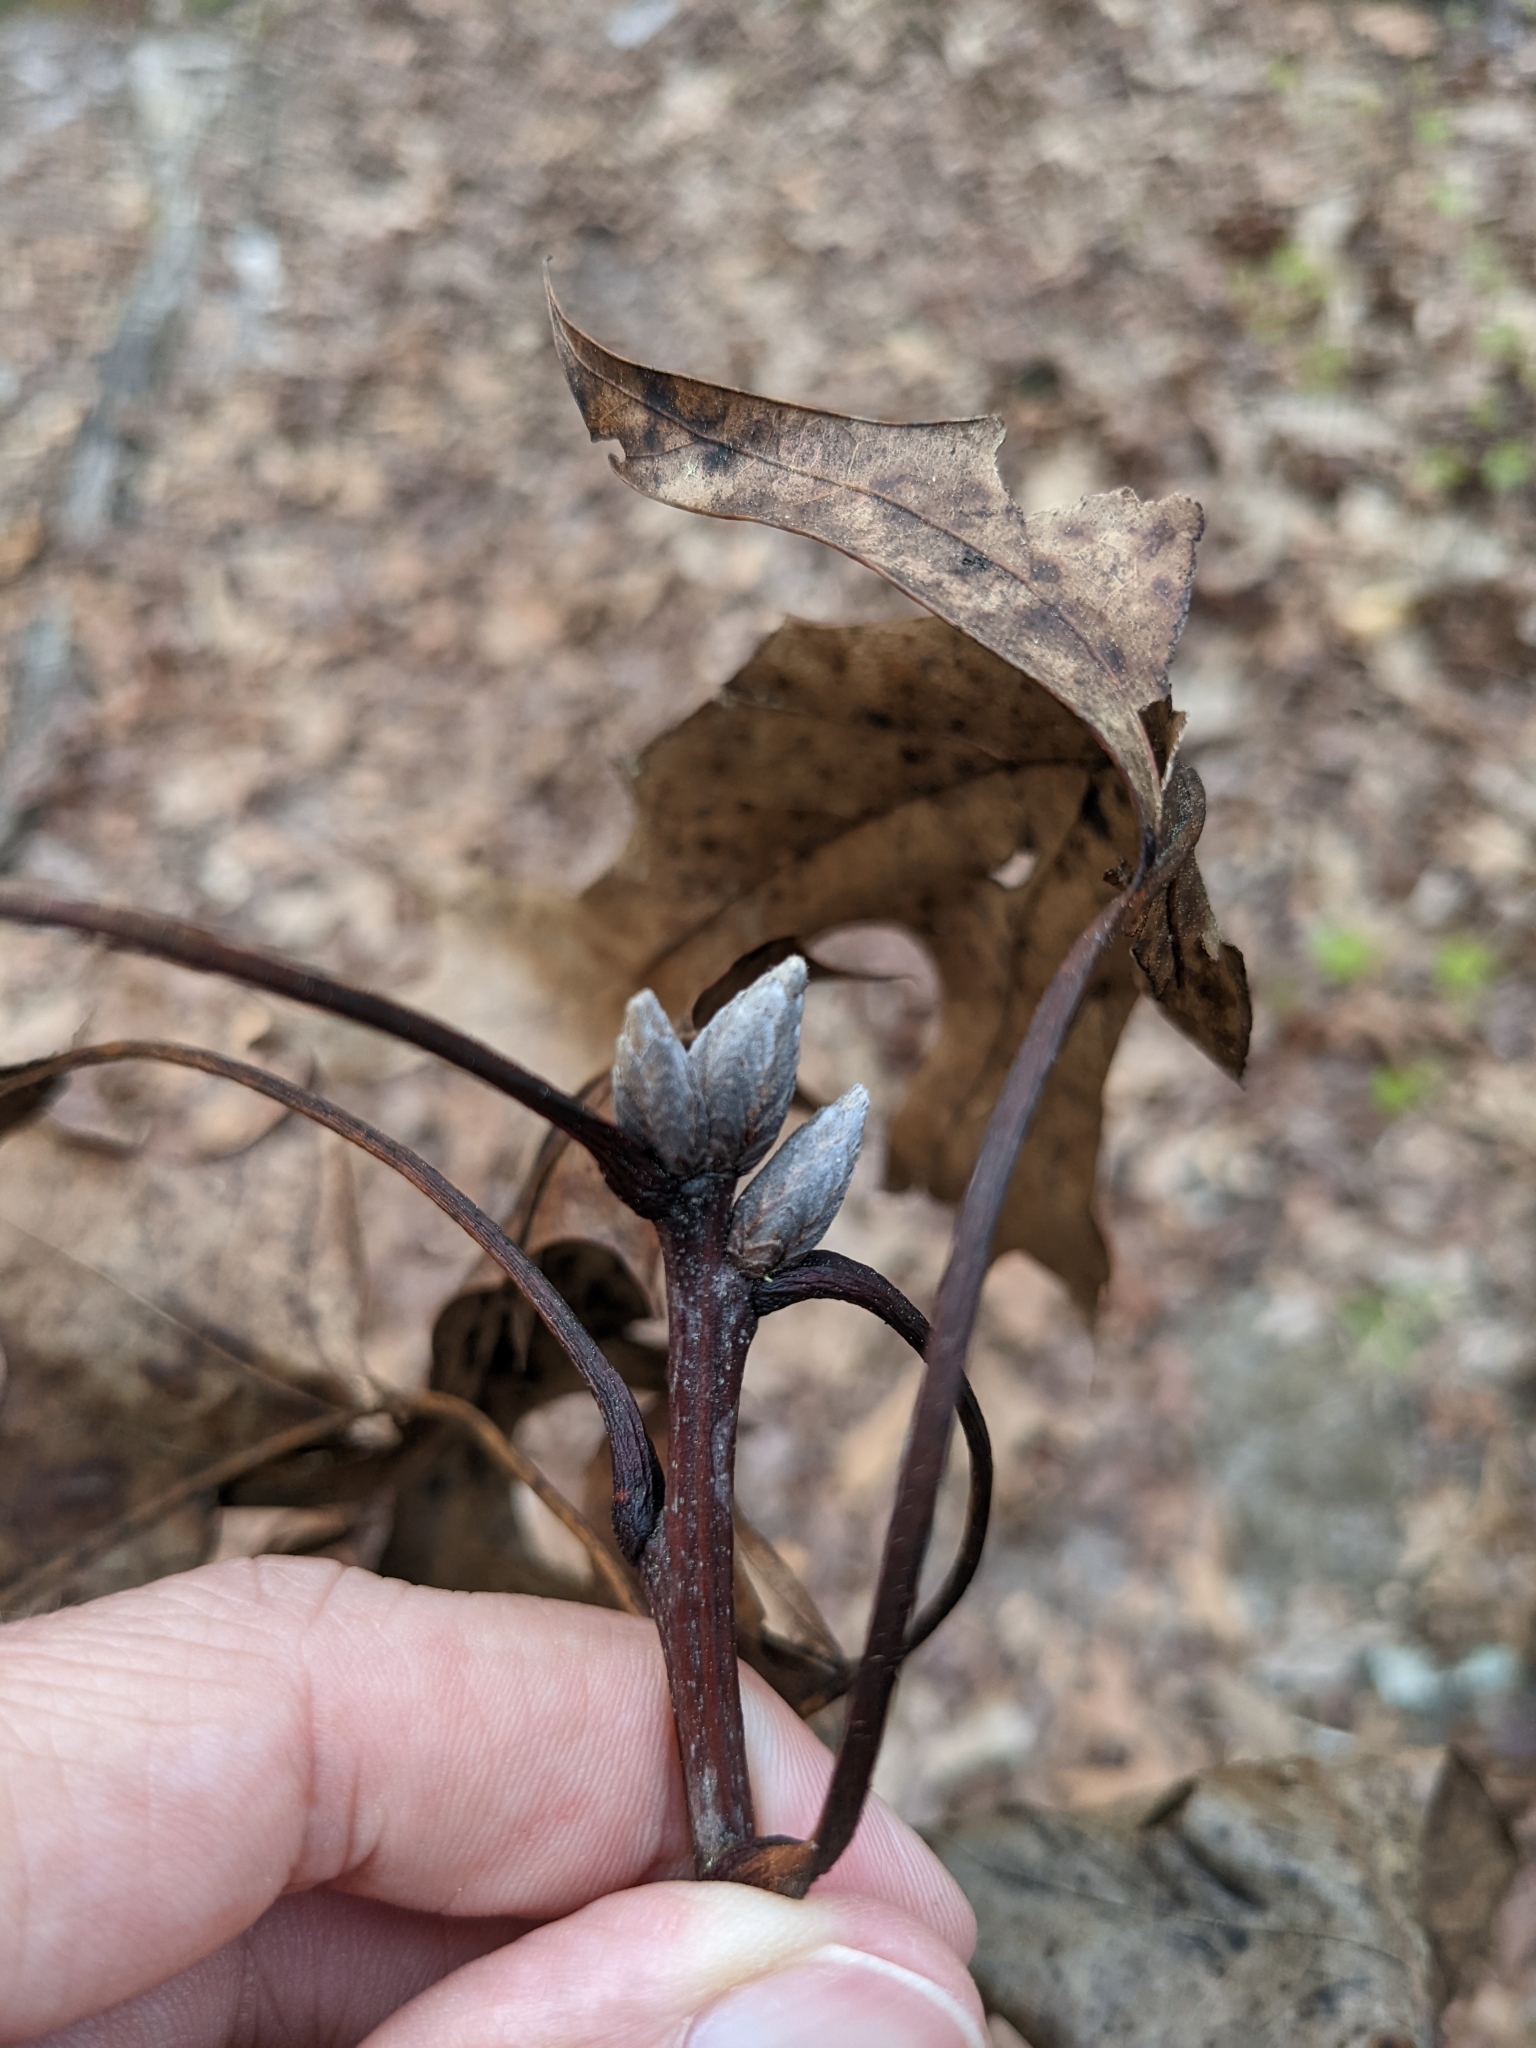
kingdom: Plantae
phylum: Tracheophyta
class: Magnoliopsida
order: Fagales
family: Fagaceae
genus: Quercus
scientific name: Quercus velutina
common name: Black oak
